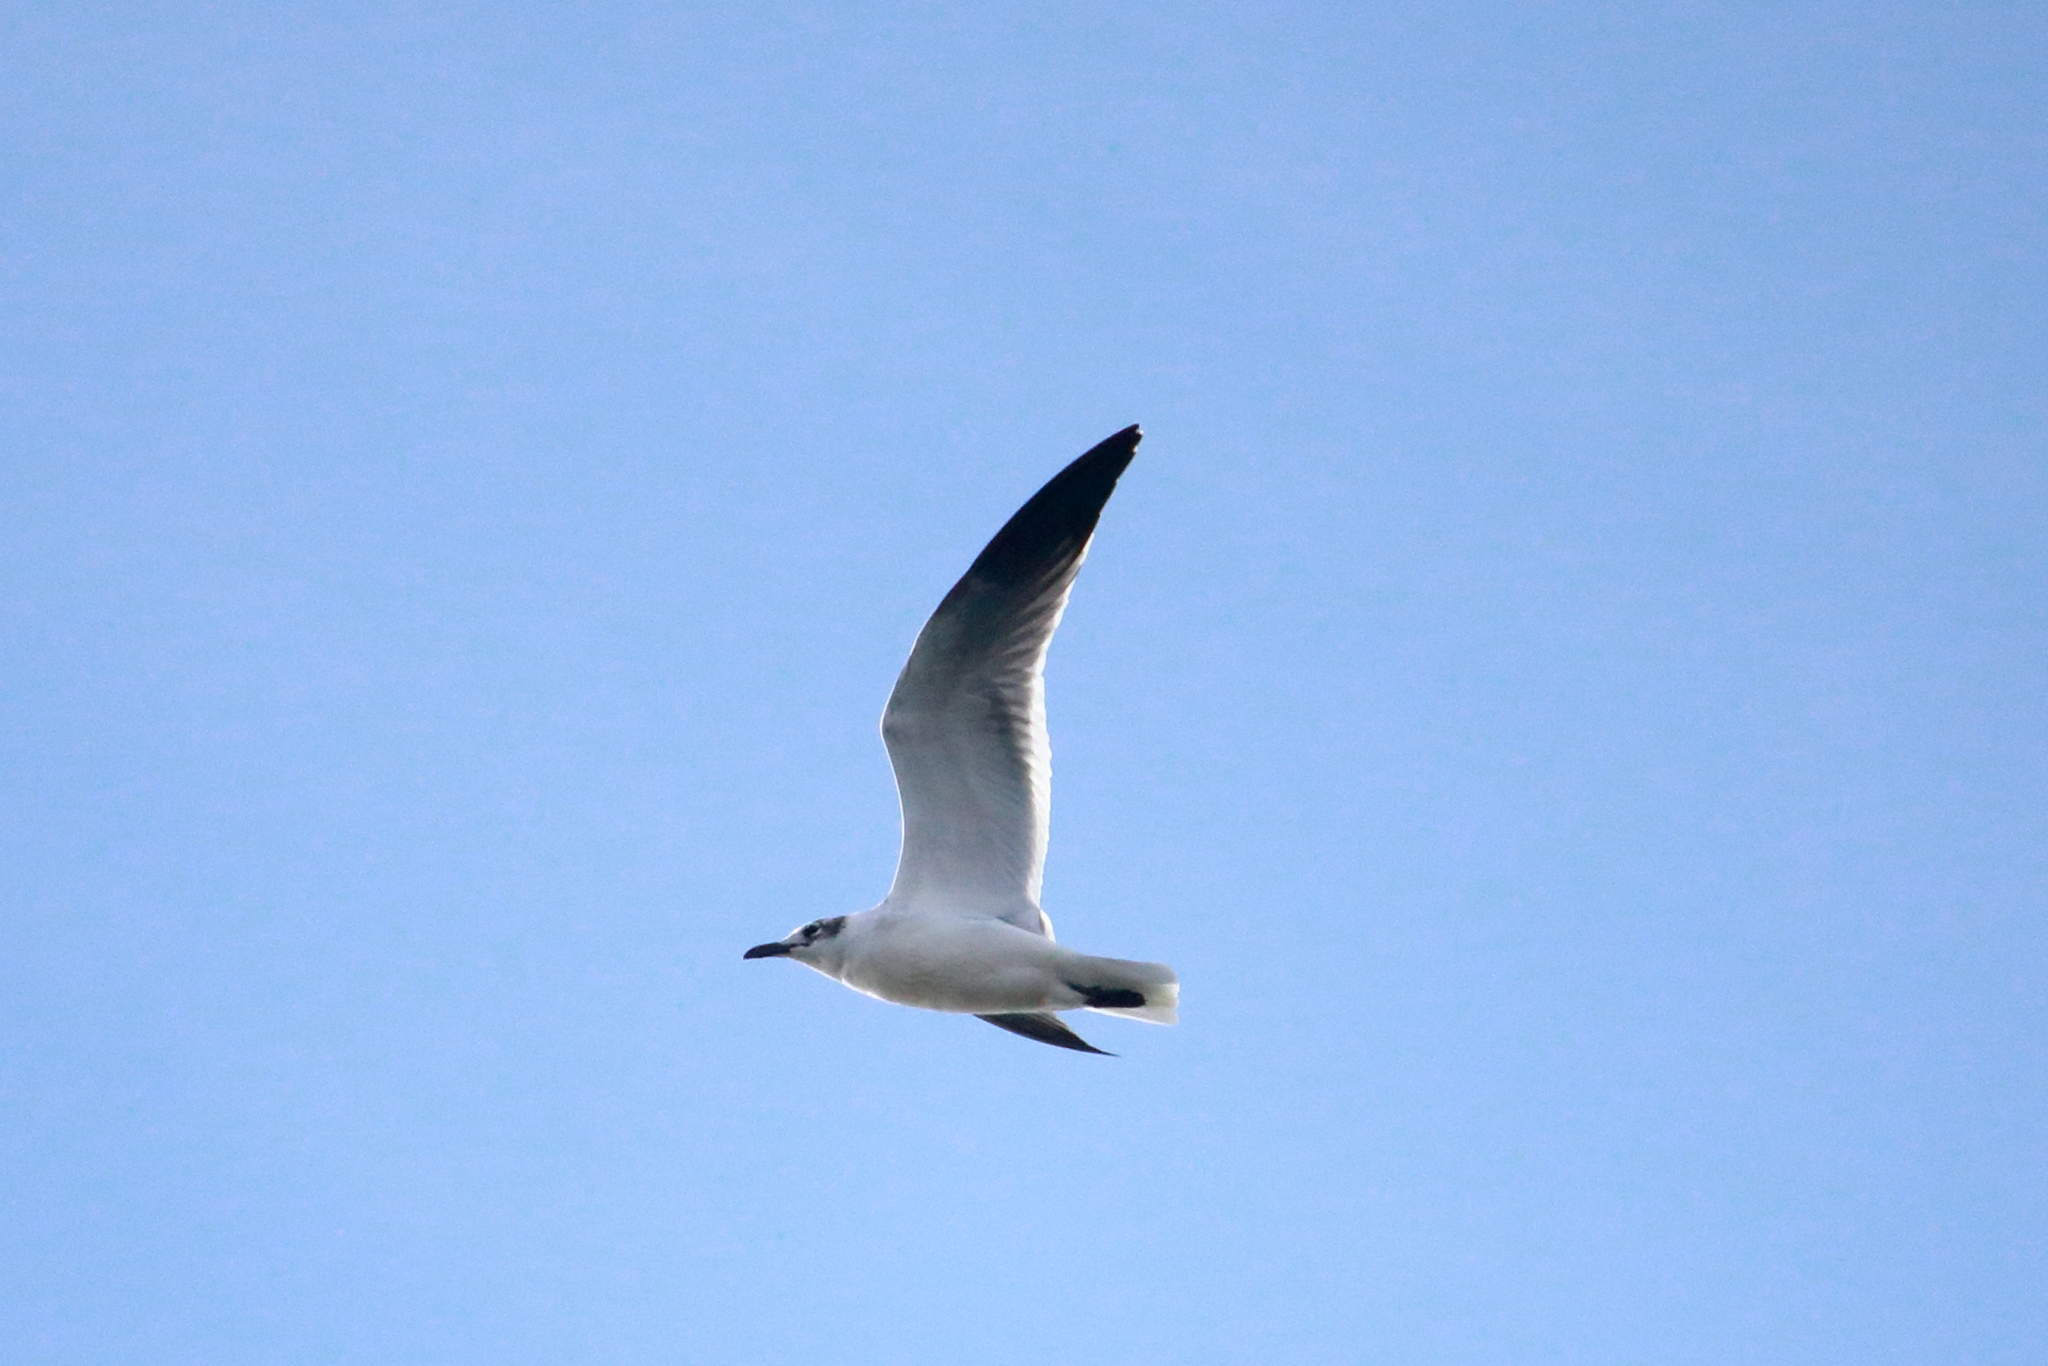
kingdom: Animalia
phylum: Chordata
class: Aves
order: Charadriiformes
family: Laridae
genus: Leucophaeus
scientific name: Leucophaeus atricilla
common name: Laughing gull
